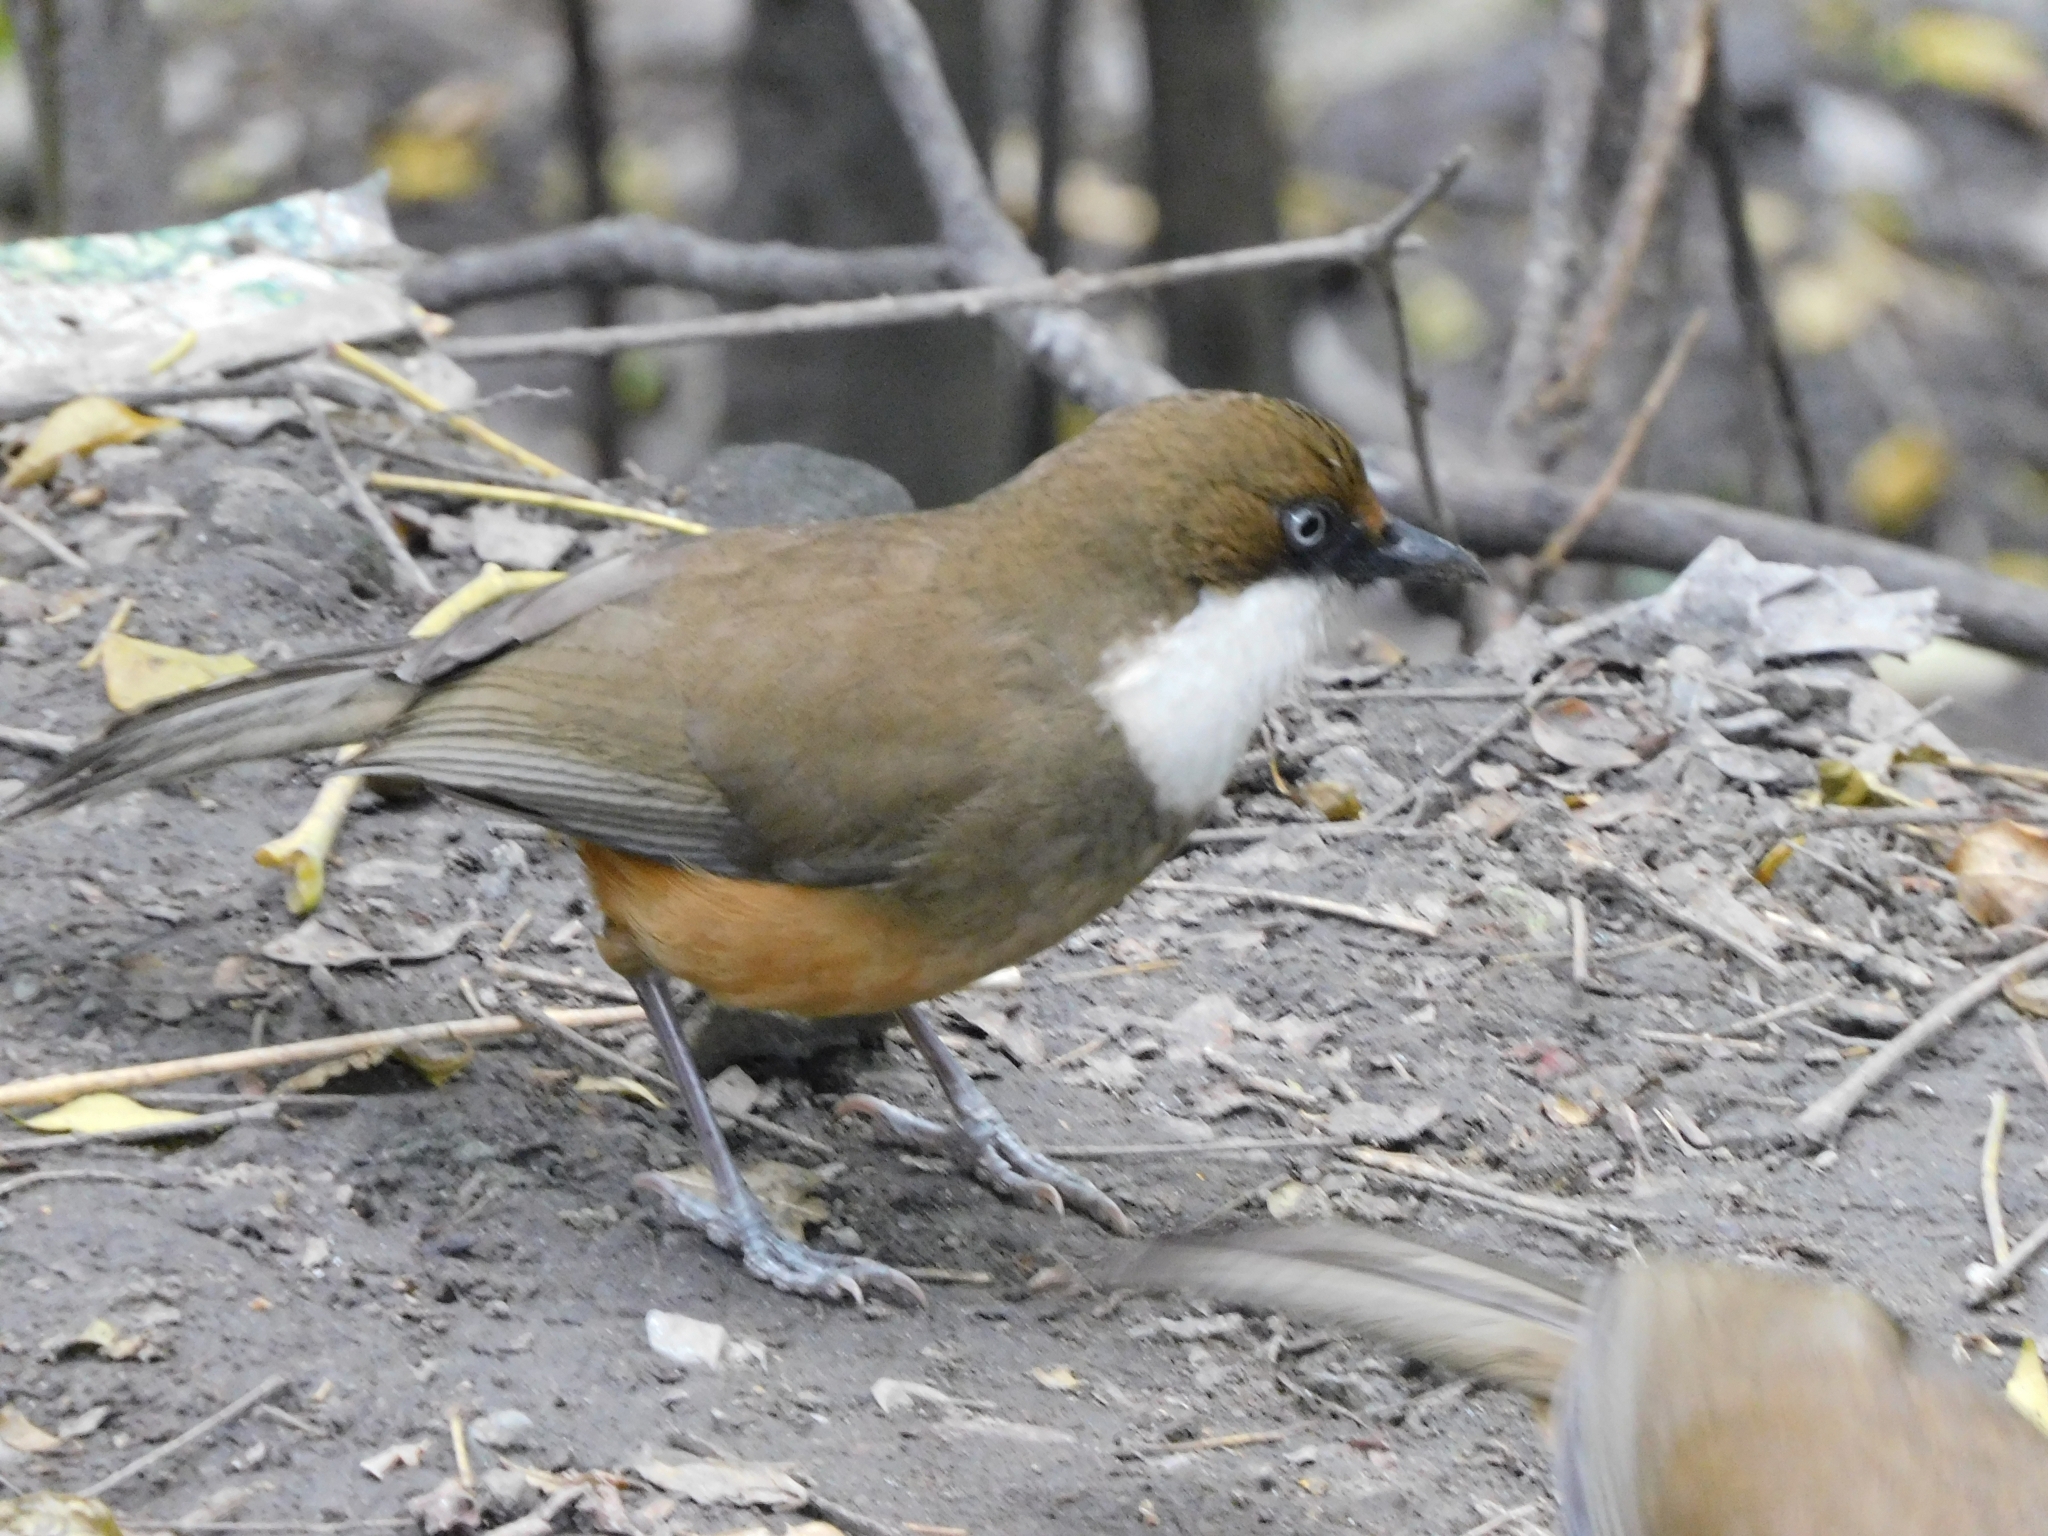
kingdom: Animalia
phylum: Chordata
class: Aves
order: Passeriformes
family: Leiothrichidae
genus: Garrulax
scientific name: Garrulax albogularis
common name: White-throated laughingthrush
